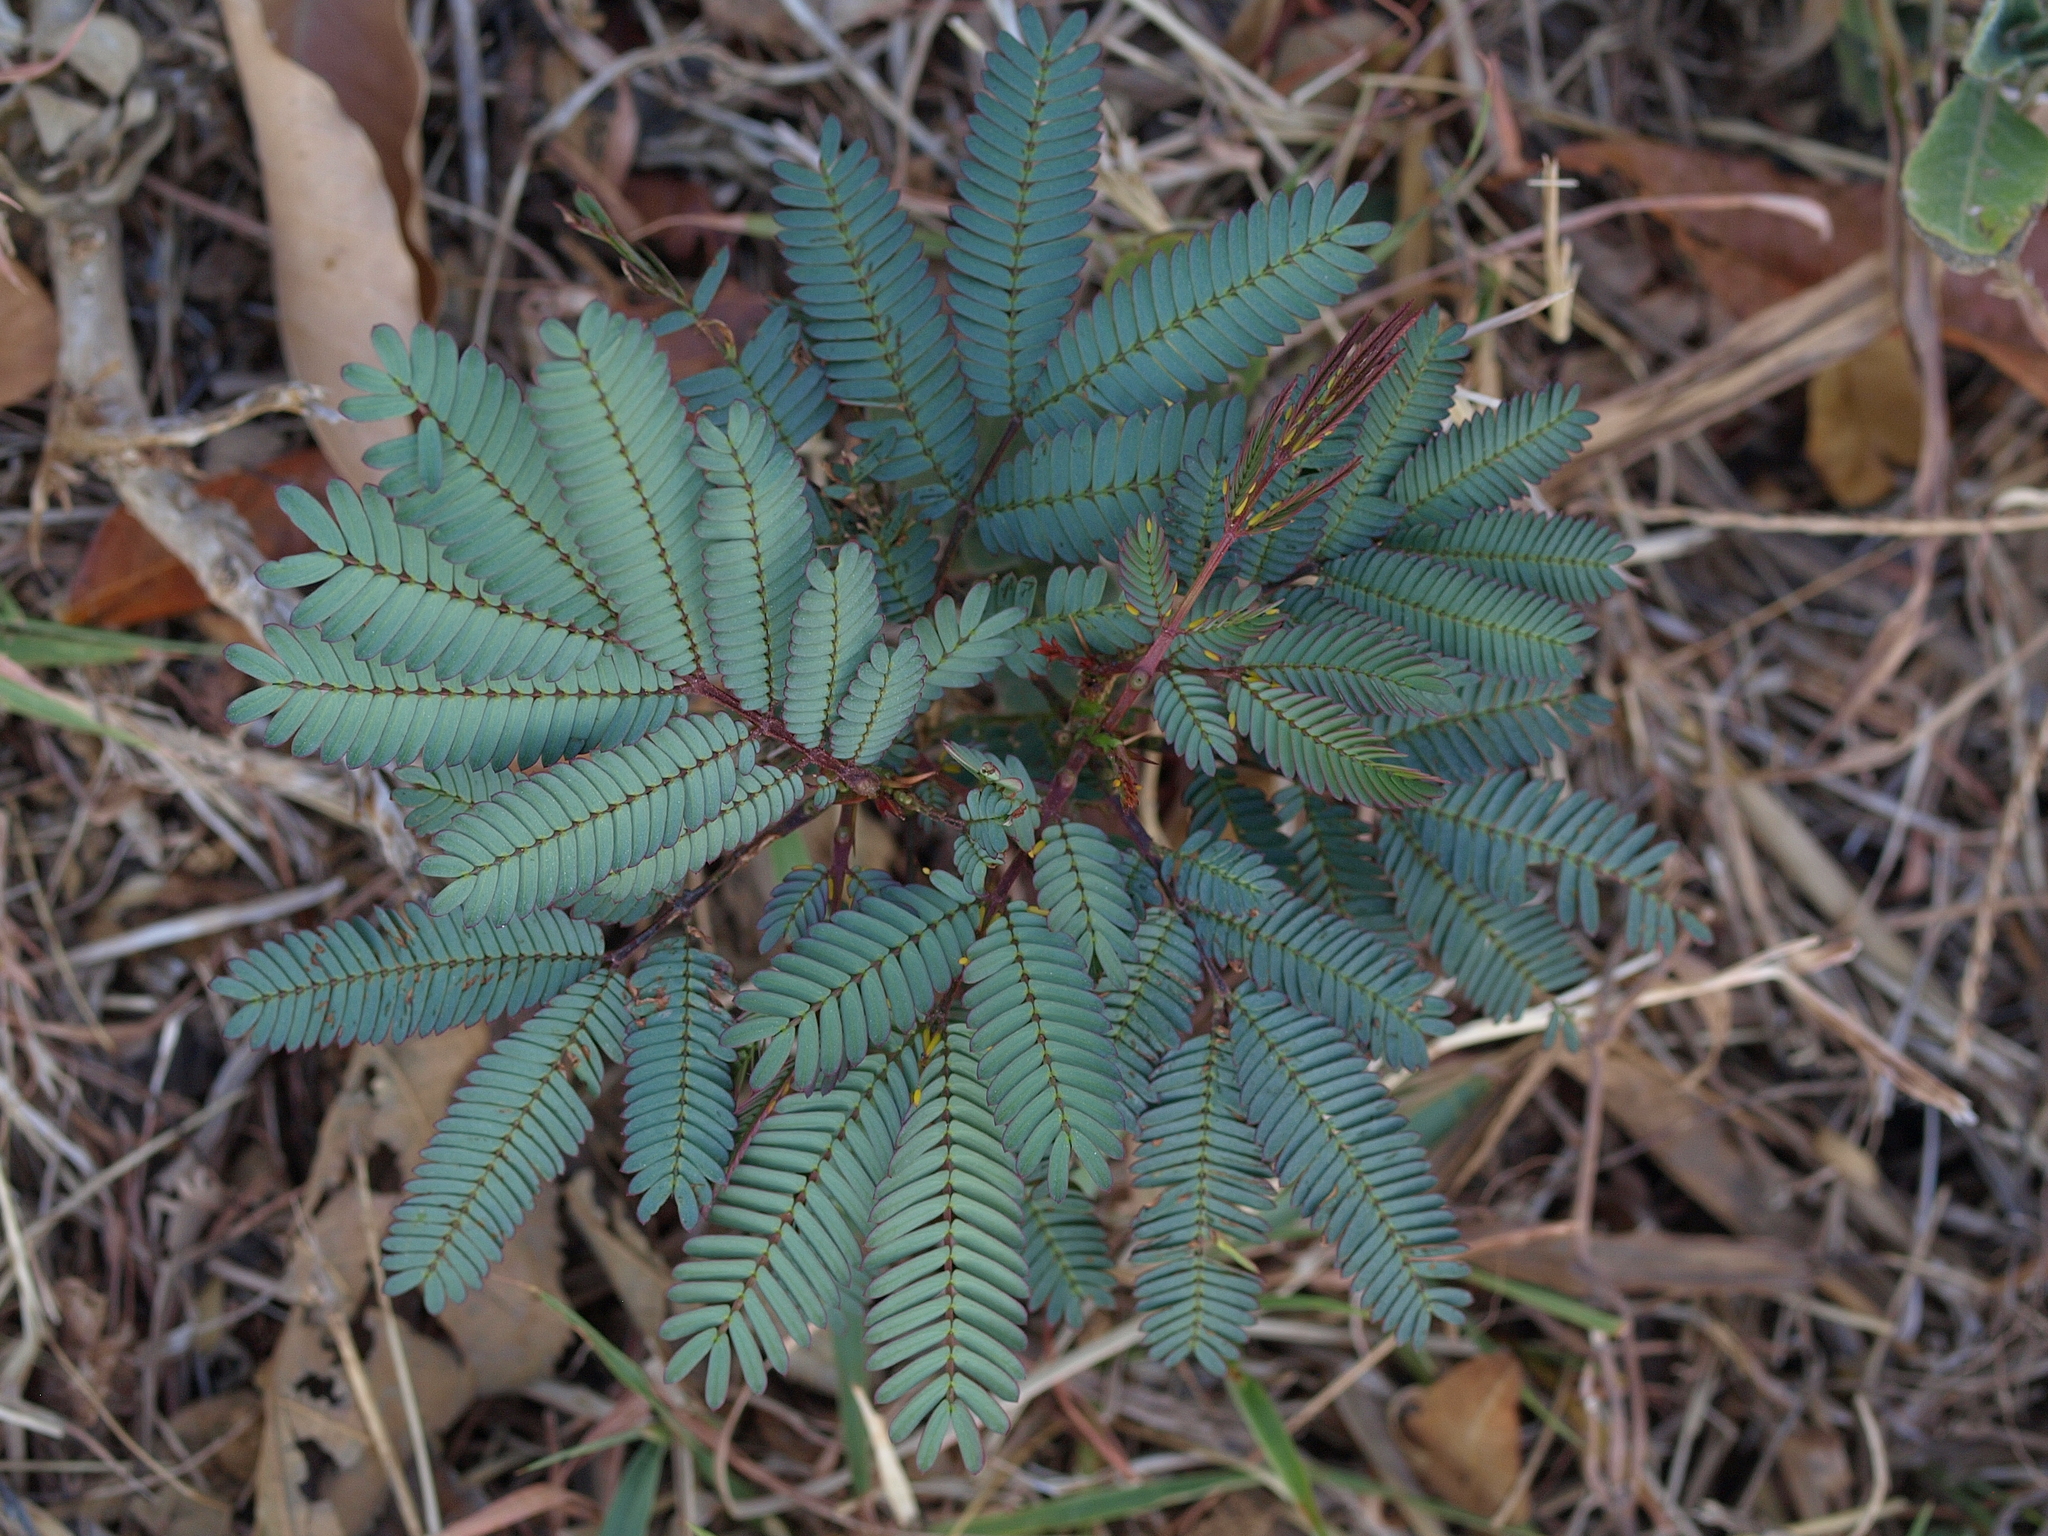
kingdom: Plantae
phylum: Tracheophyta
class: Magnoliopsida
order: Fabales
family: Fabaceae
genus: Vachellia
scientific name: Vachellia collinsii
